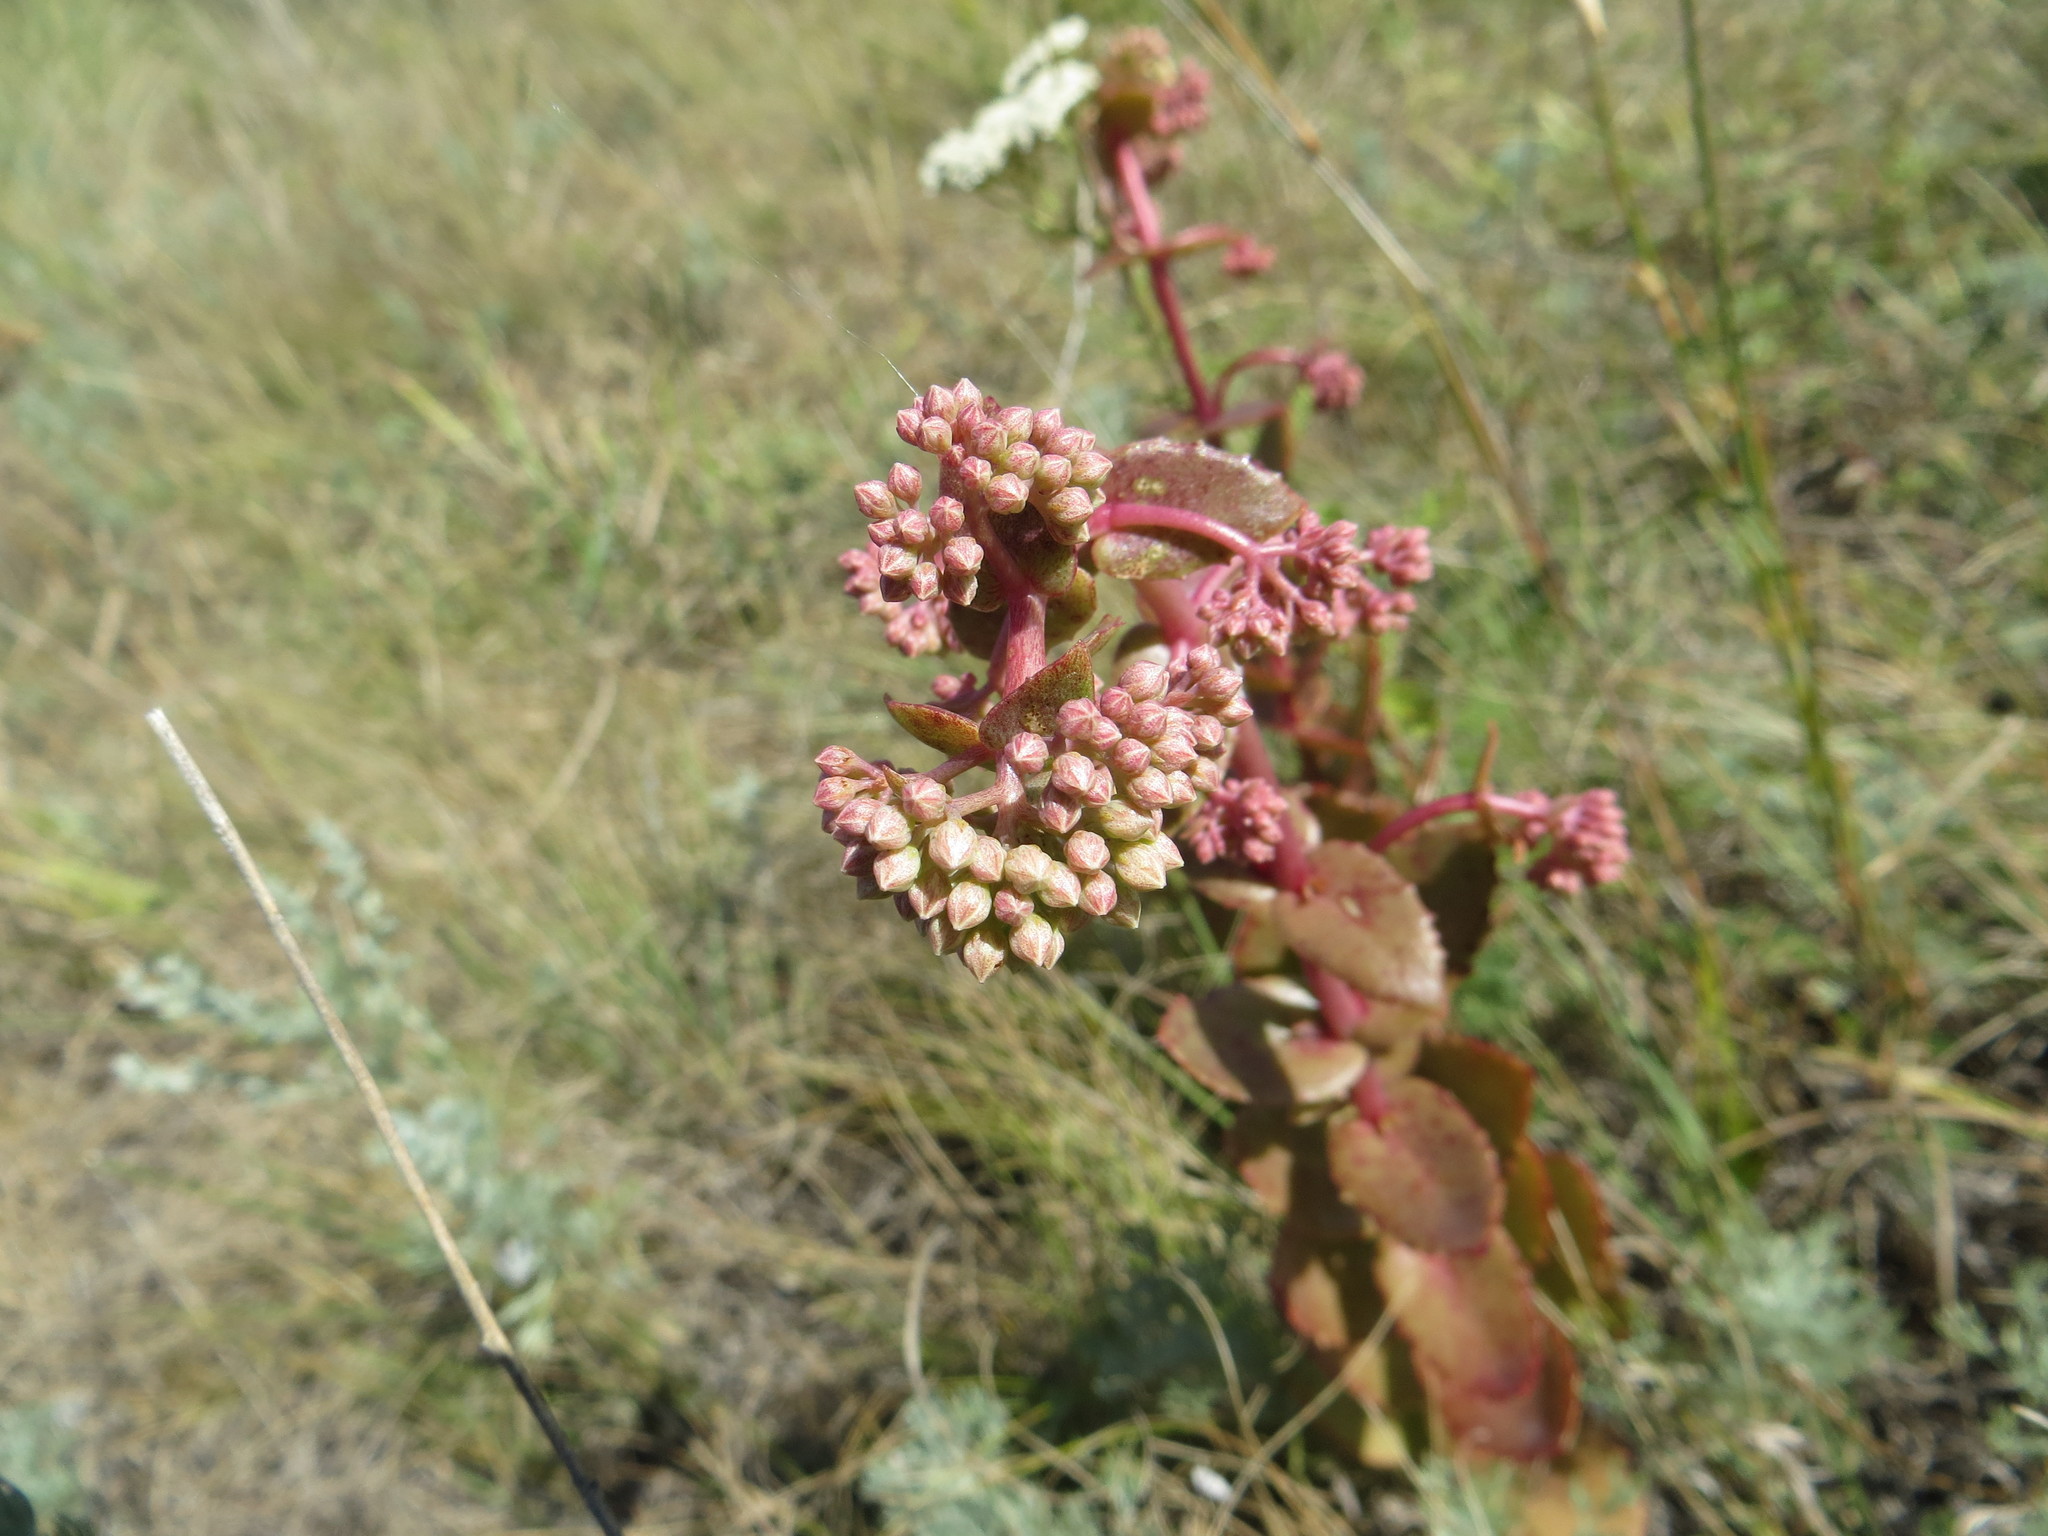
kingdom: Plantae
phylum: Tracheophyta
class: Magnoliopsida
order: Saxifragales
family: Crassulaceae
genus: Hylotelephium
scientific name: Hylotelephium maximum
